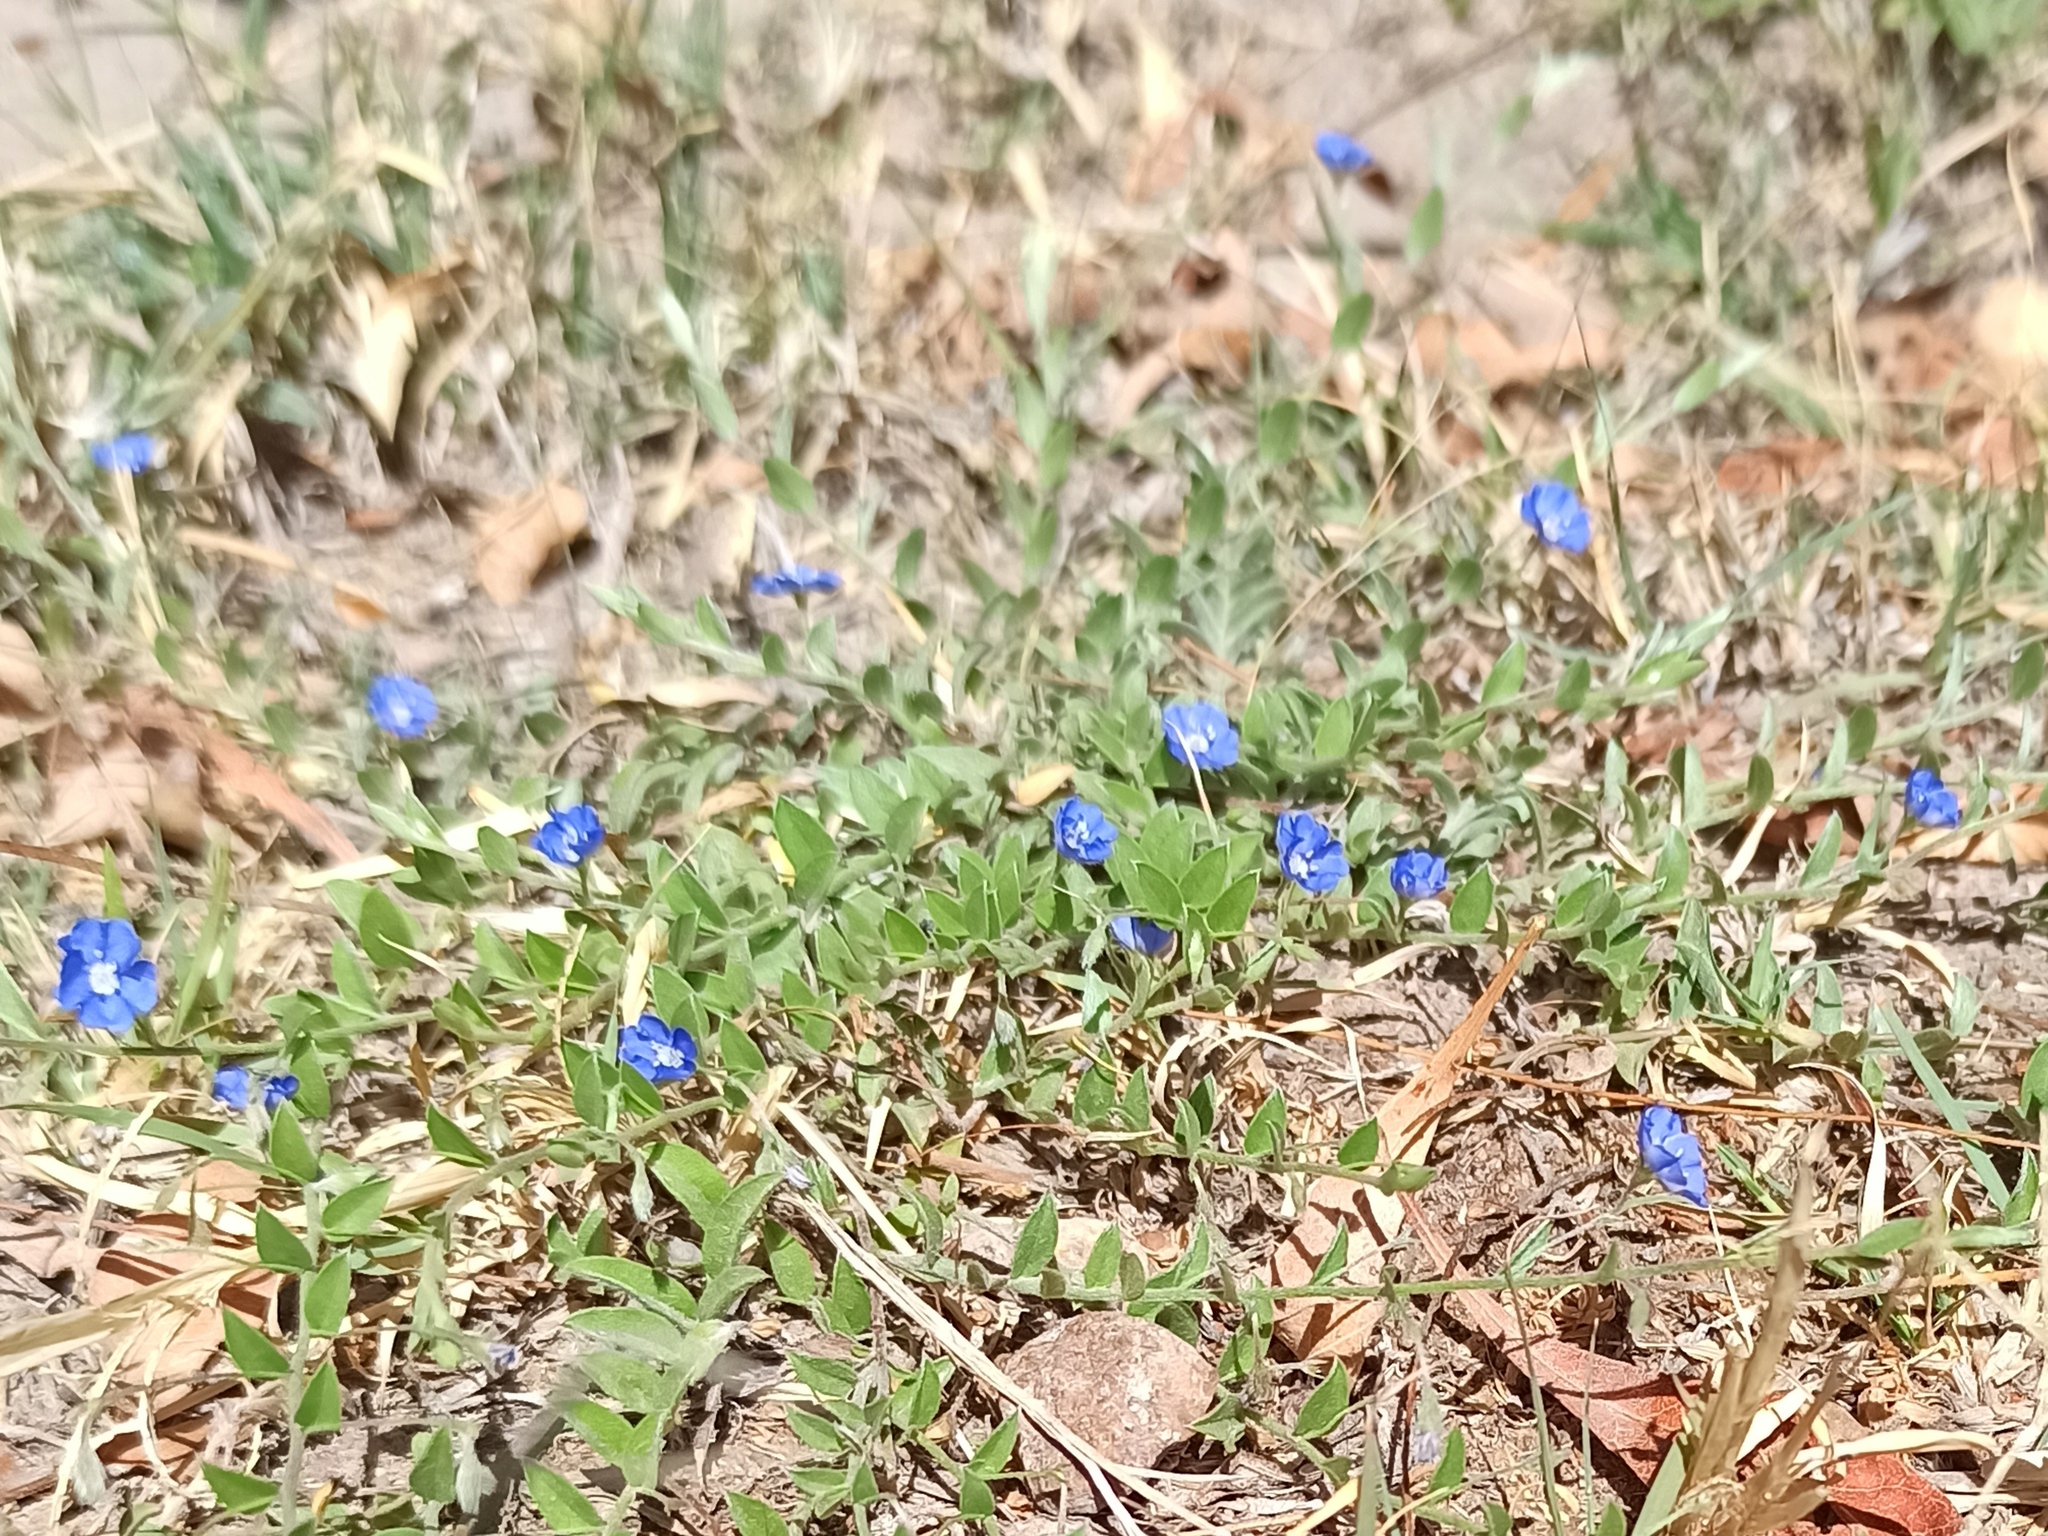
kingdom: Plantae
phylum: Tracheophyta
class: Magnoliopsida
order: Solanales
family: Convolvulaceae
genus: Evolvulus
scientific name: Evolvulus alsinoides
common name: Slender dwarf morning-glory
